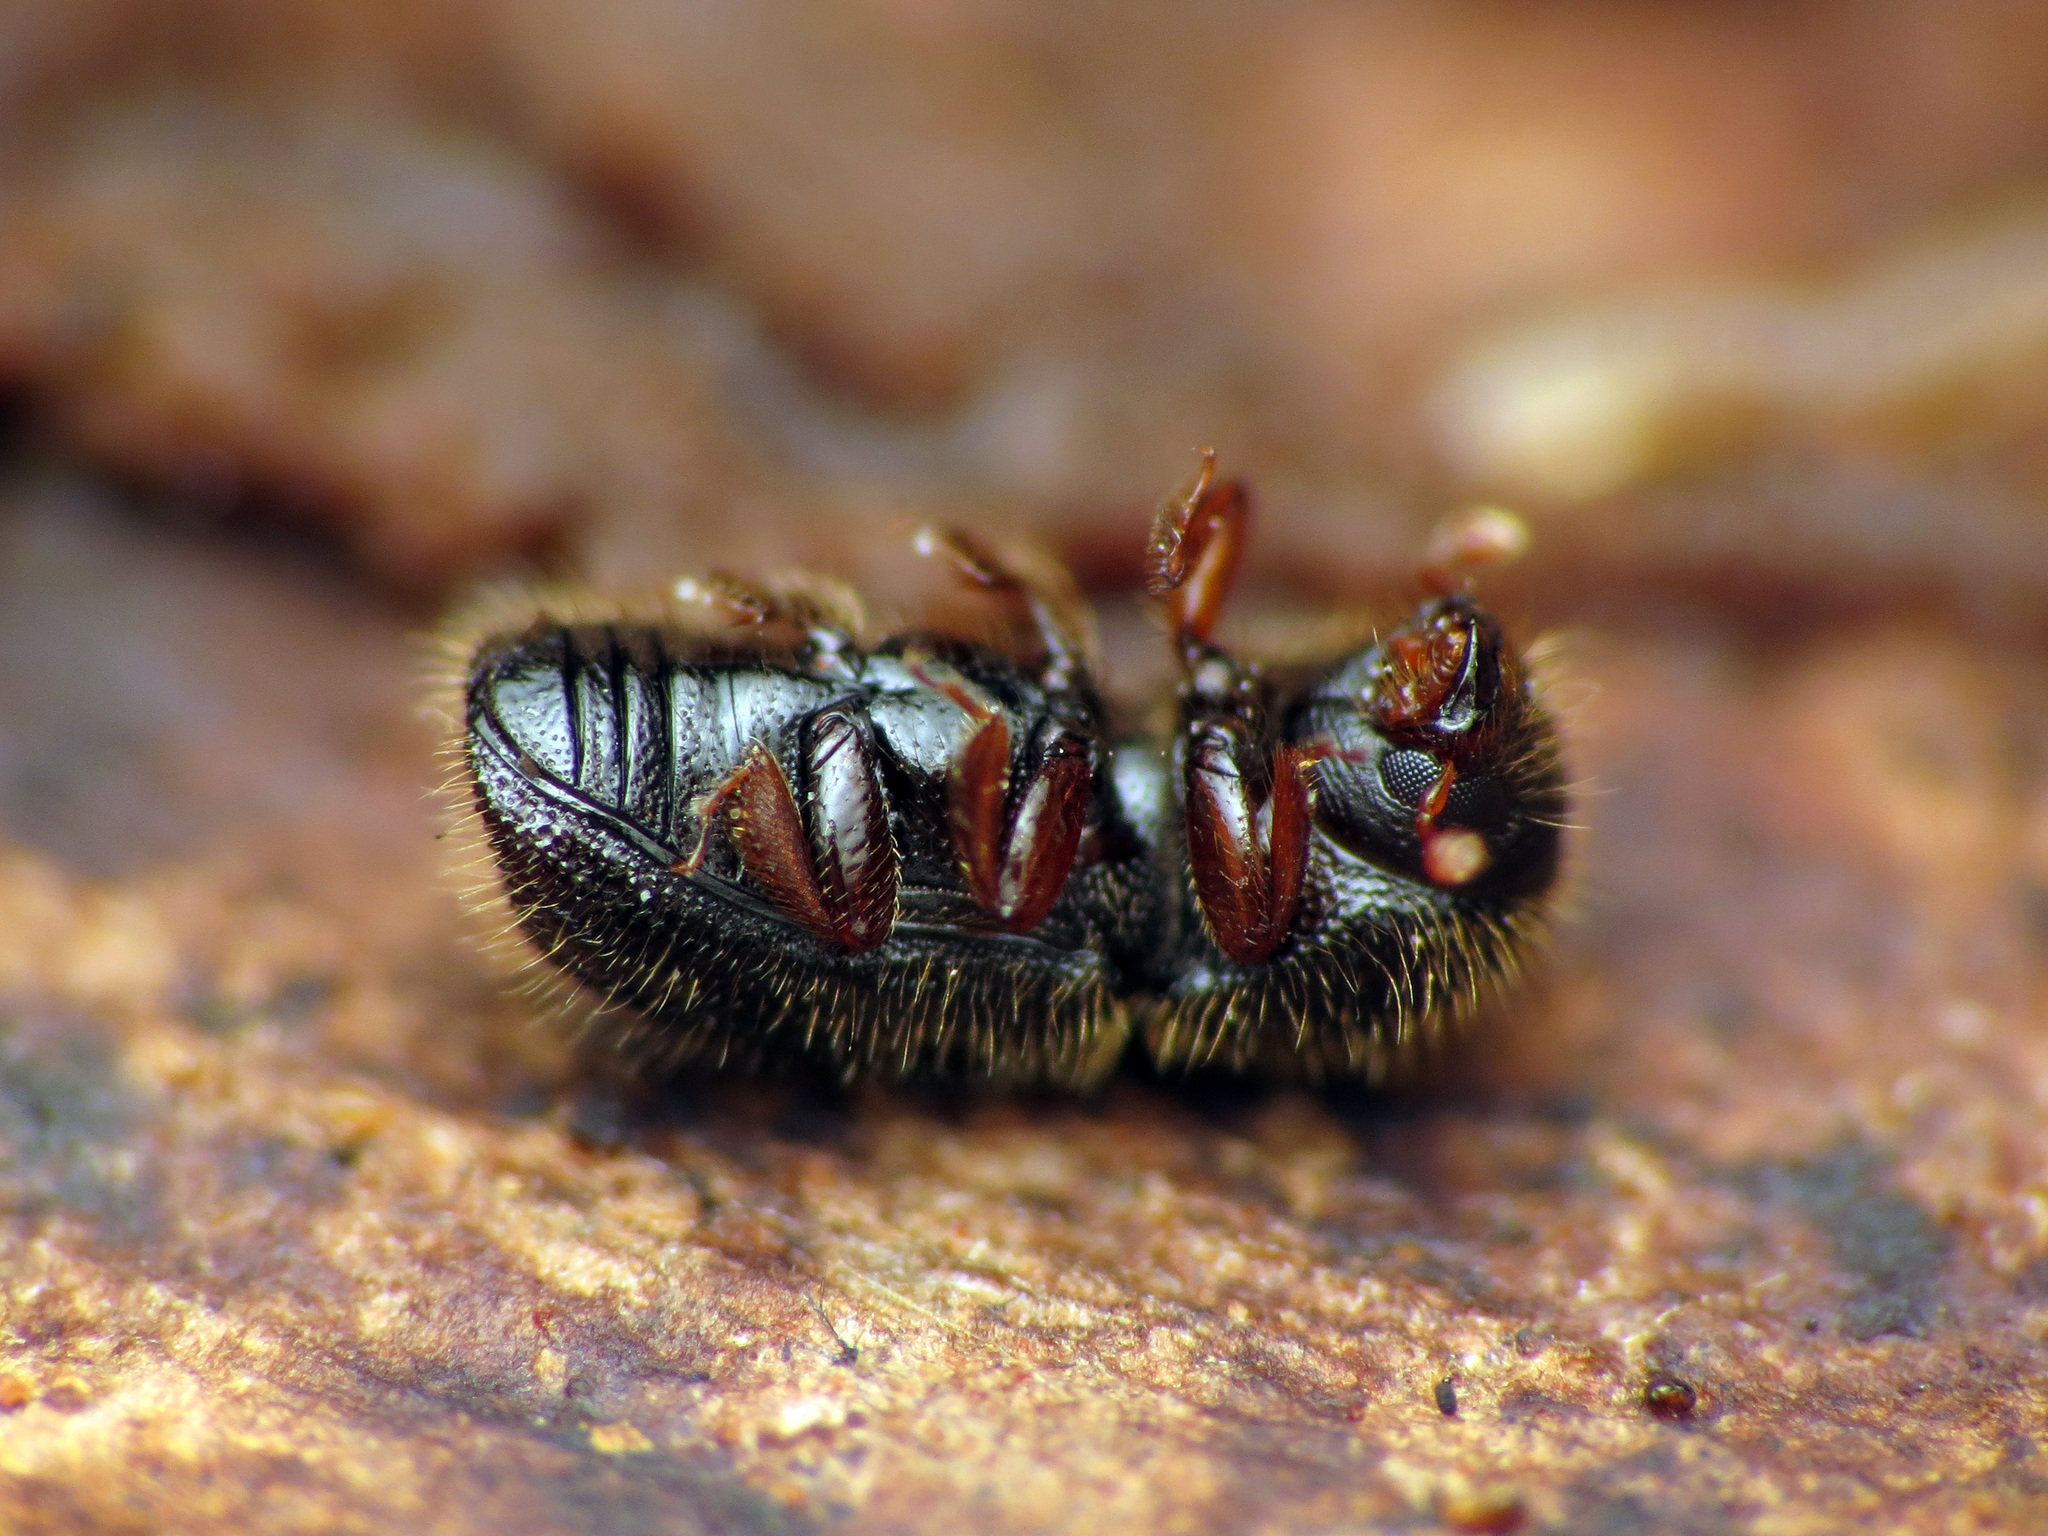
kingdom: Animalia
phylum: Arthropoda
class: Insecta
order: Coleoptera
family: Curculionidae
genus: Xylosandrus
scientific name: Xylosandrus germanus
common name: Bark beetle
